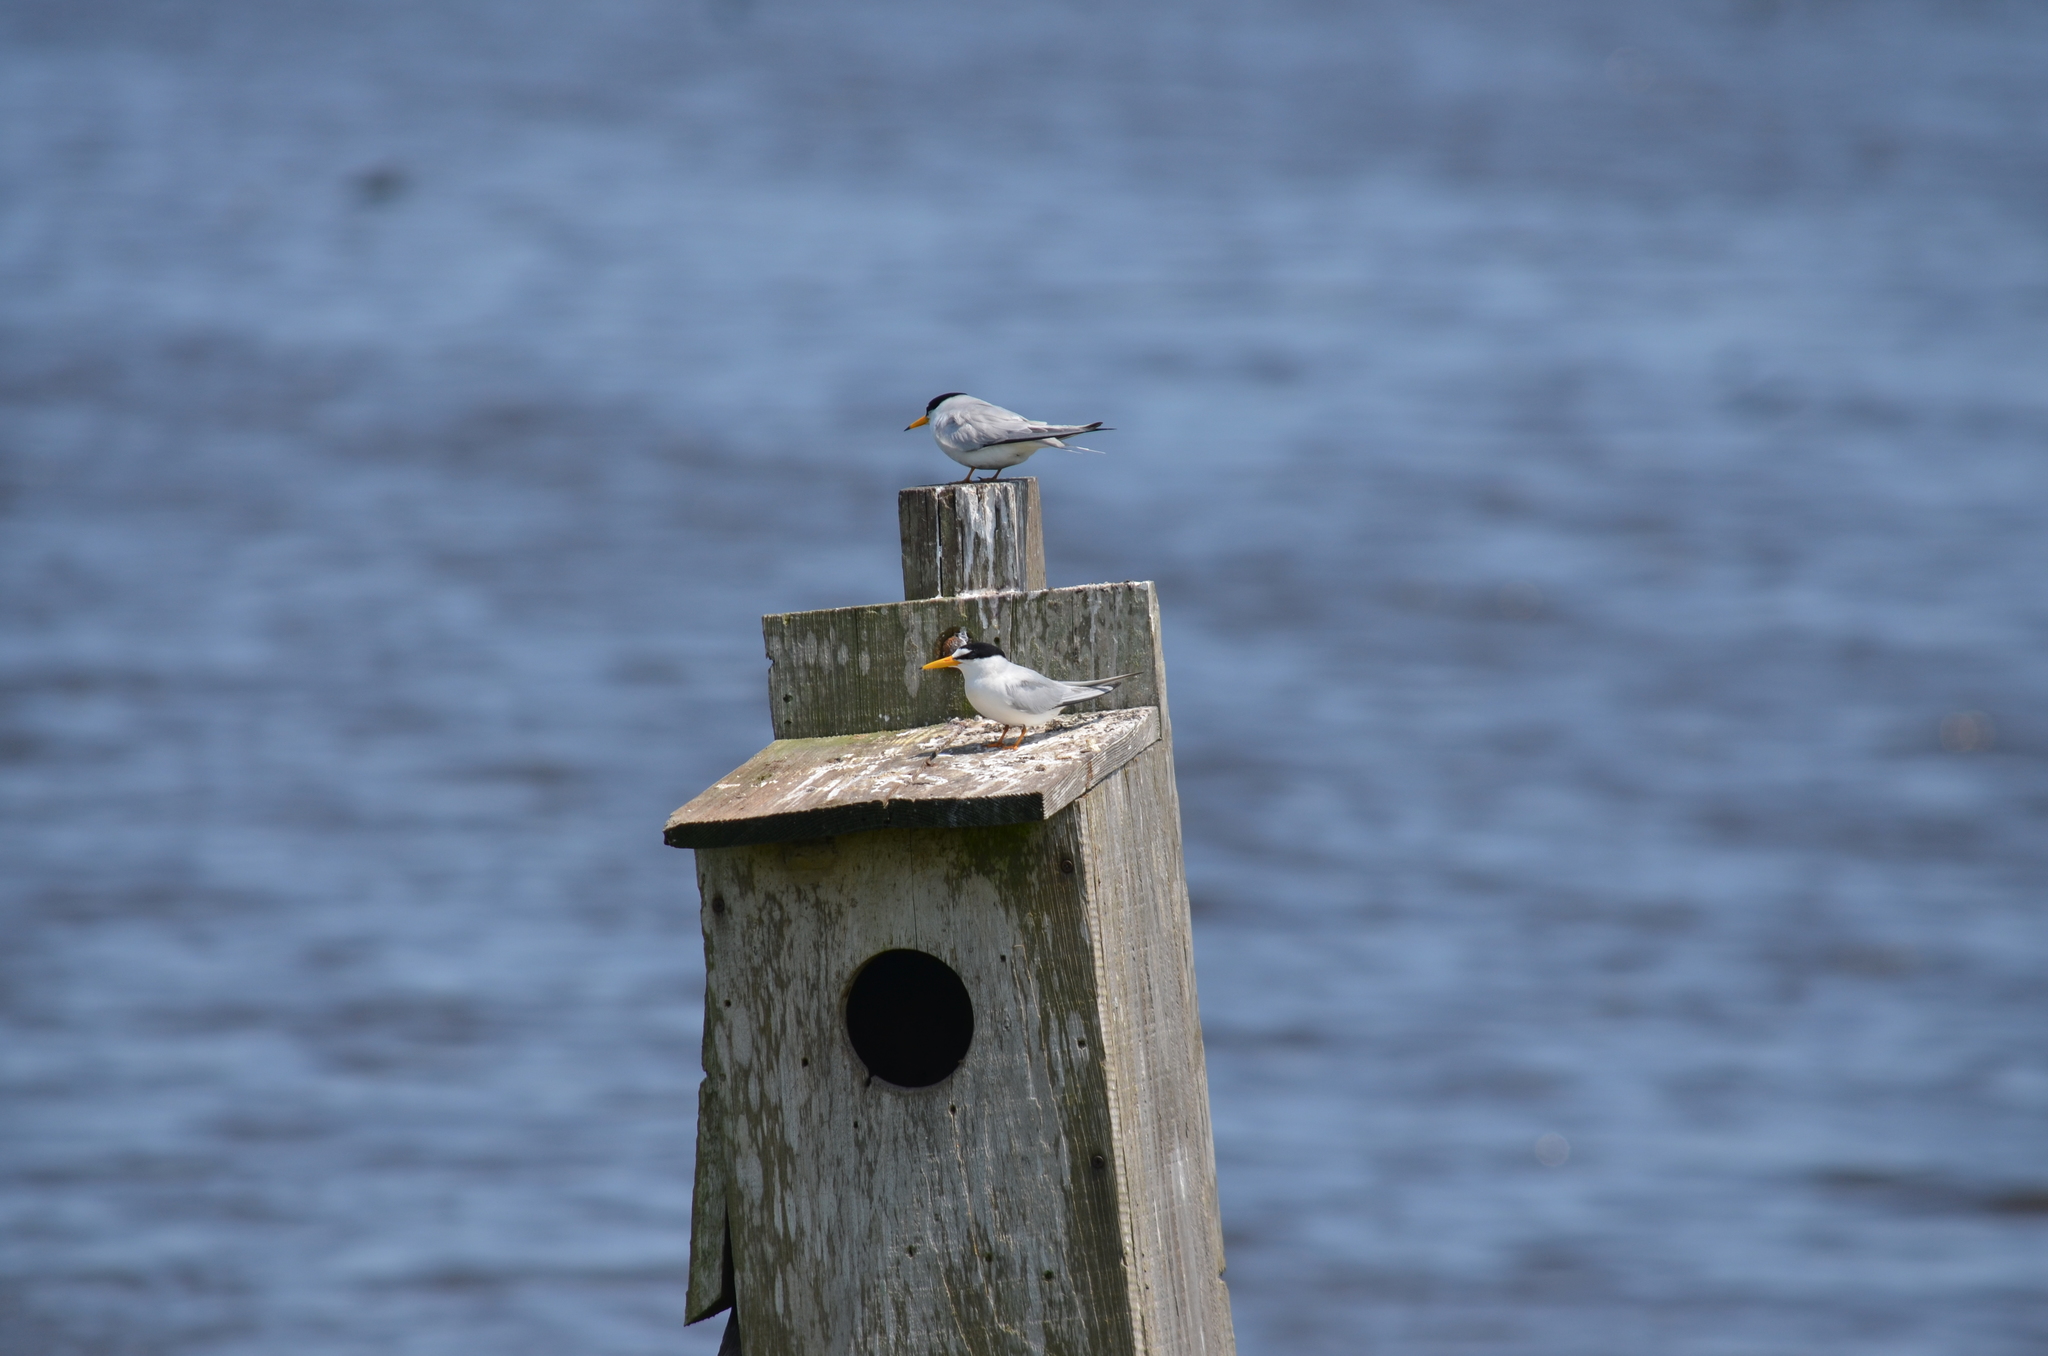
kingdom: Animalia
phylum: Chordata
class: Aves
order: Charadriiformes
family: Laridae
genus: Sternula
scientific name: Sternula antillarum
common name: Least tern
